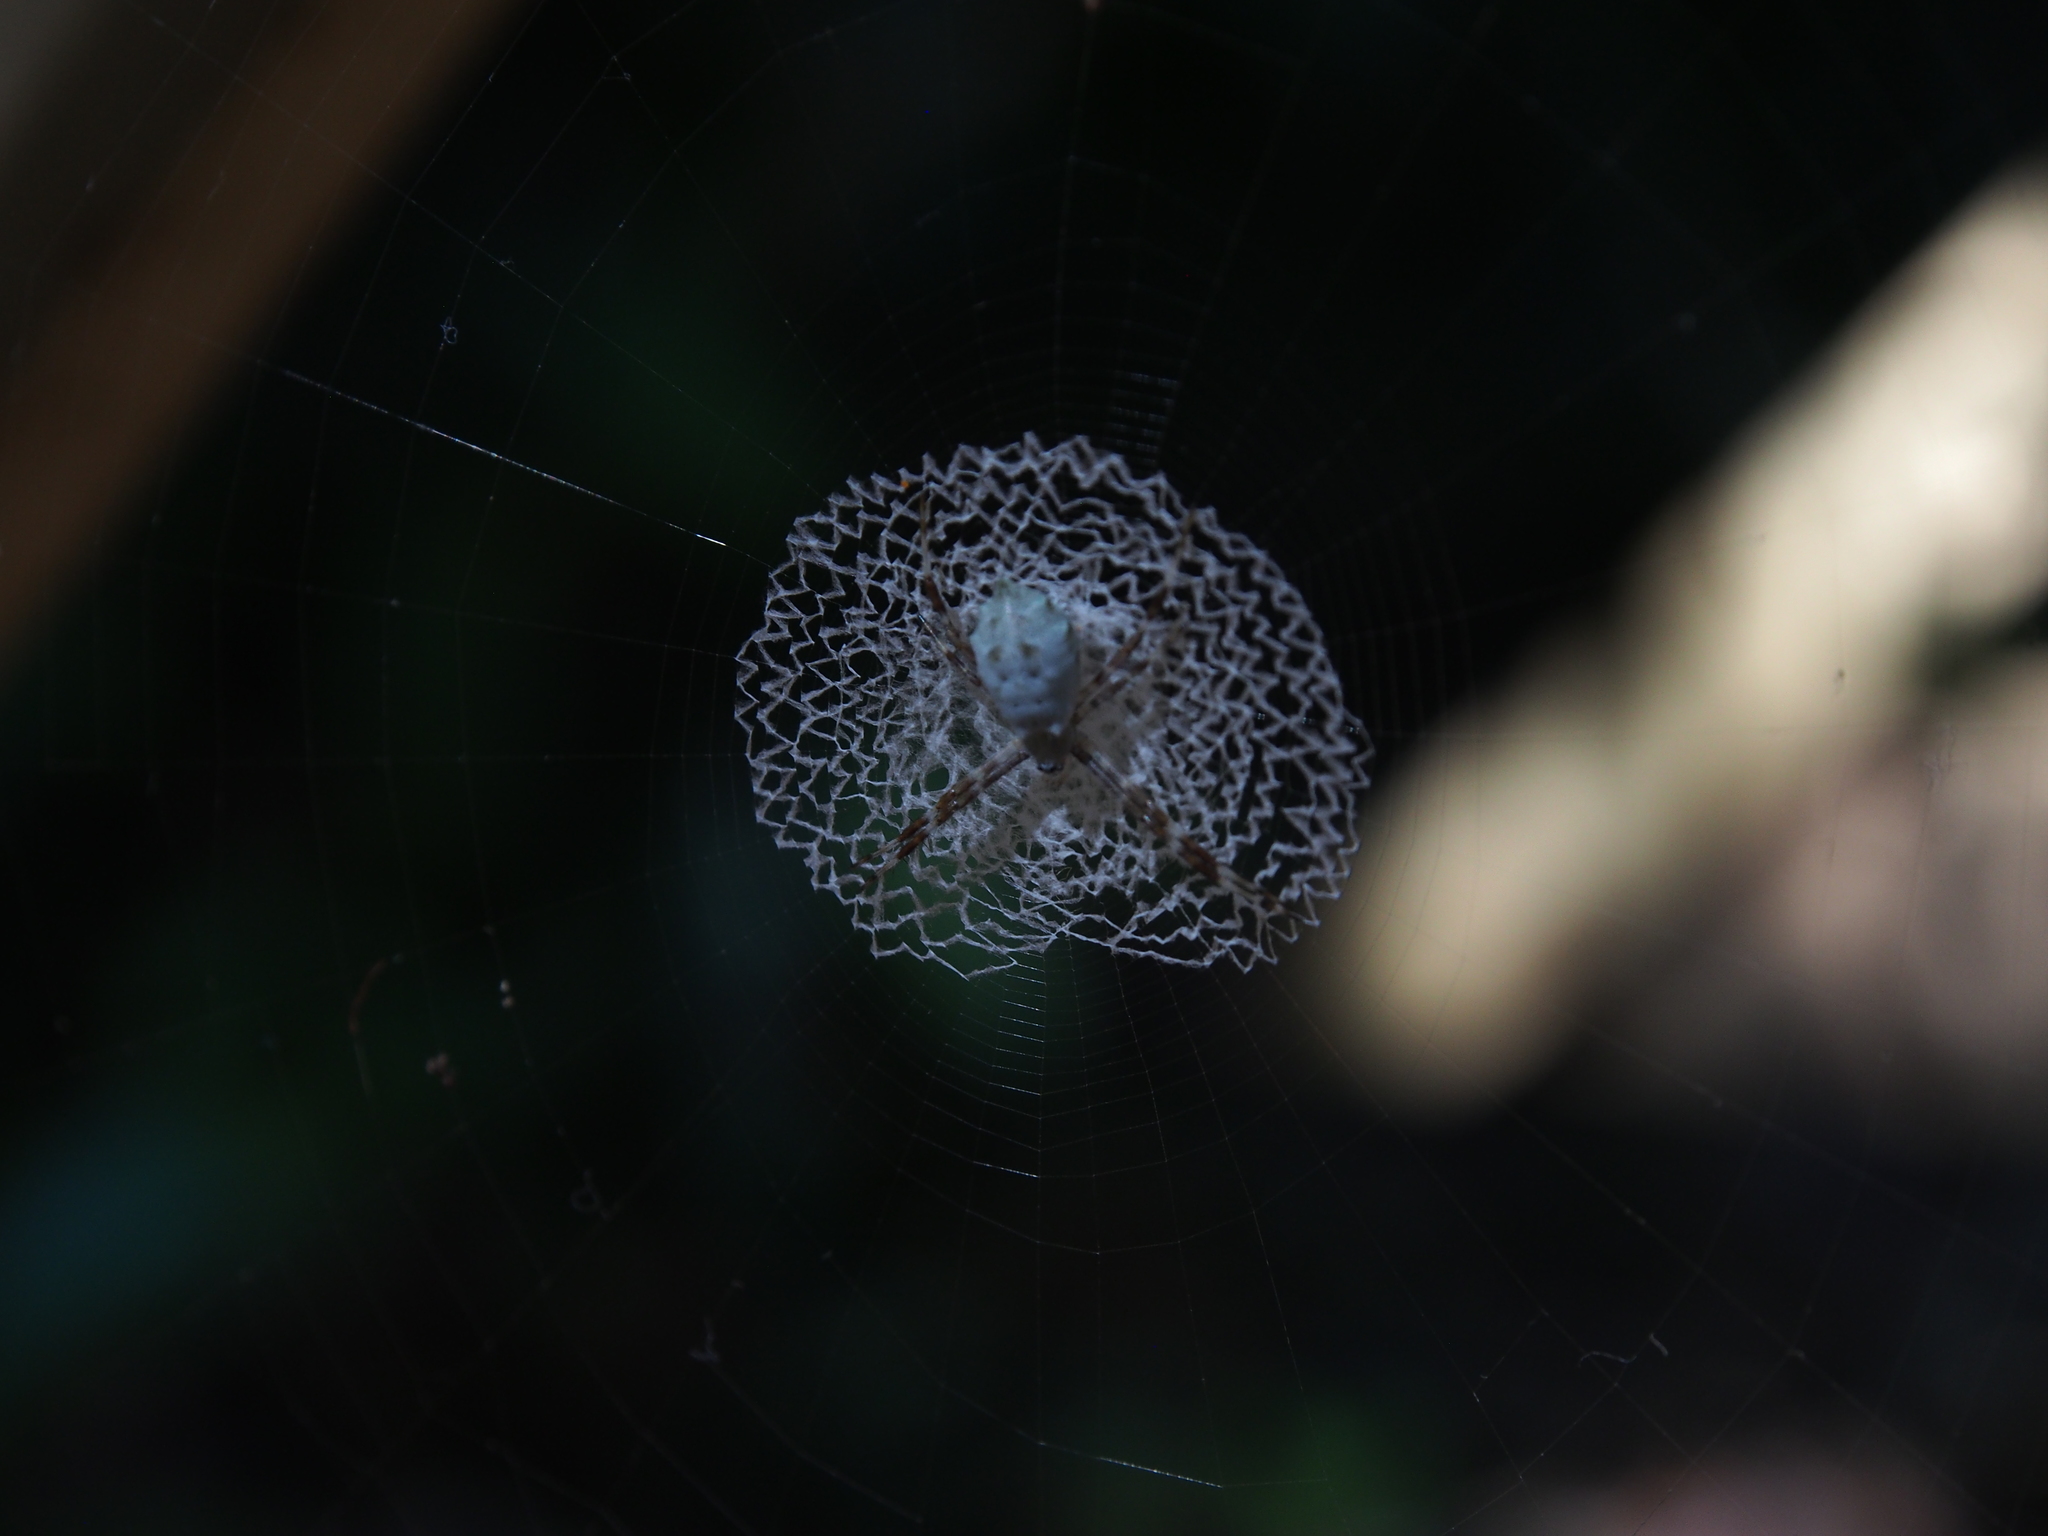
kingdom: Animalia
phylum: Arthropoda
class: Arachnida
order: Araneae
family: Araneidae
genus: Argiope
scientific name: Argiope submaronica
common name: Orb weavers
